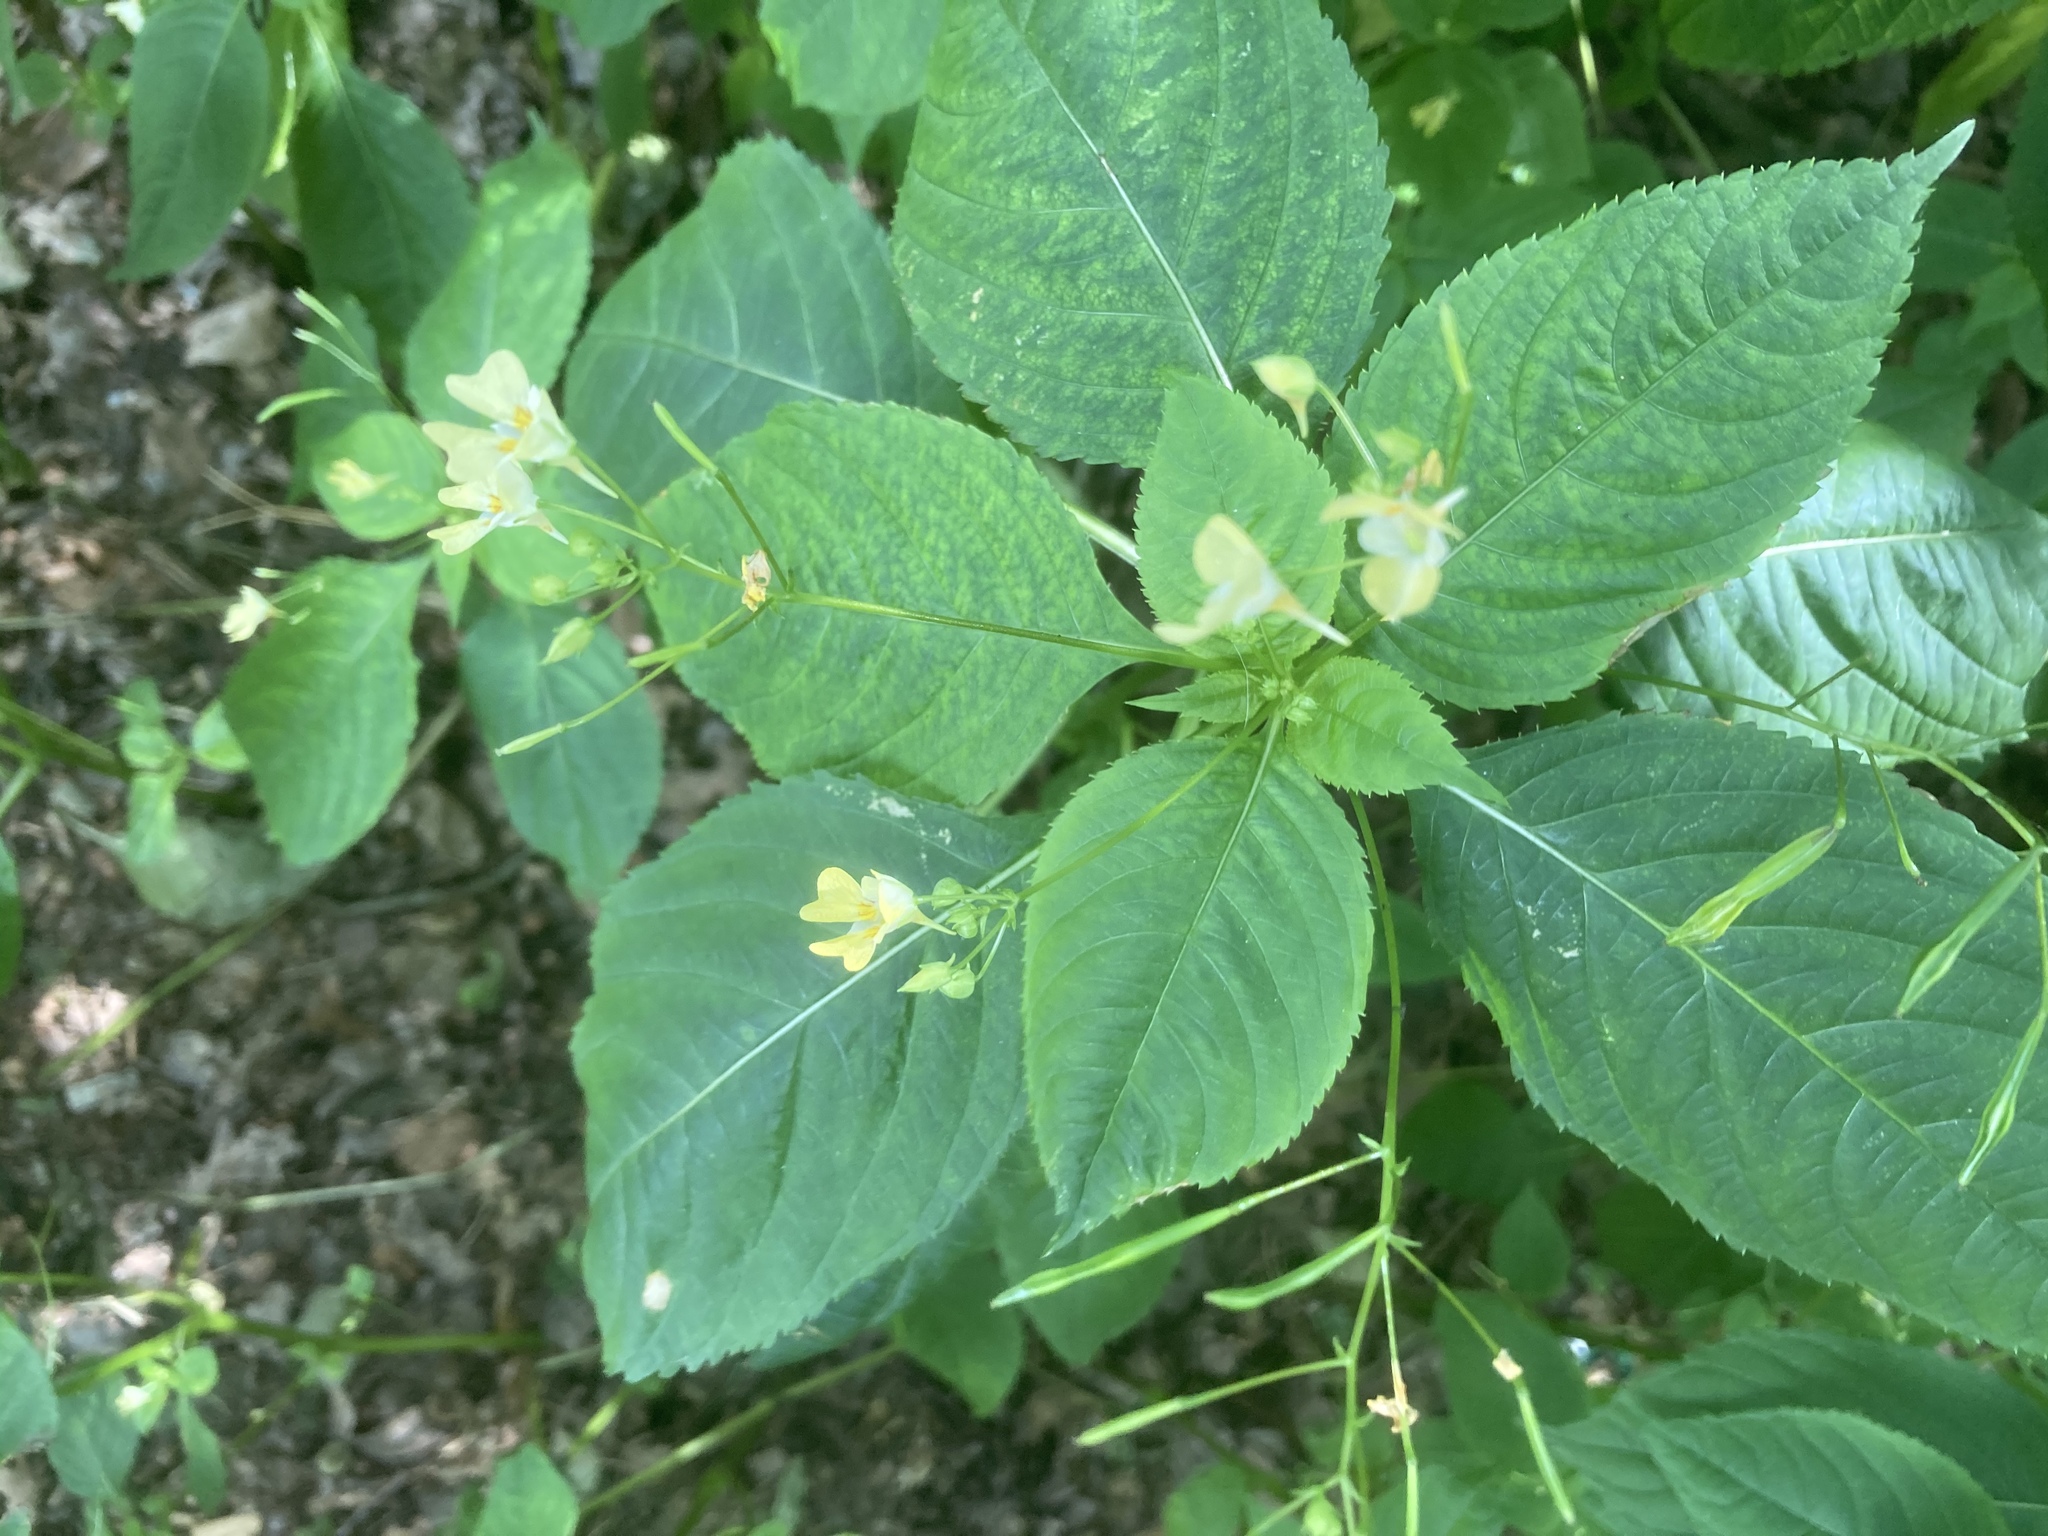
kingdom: Plantae
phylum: Tracheophyta
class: Magnoliopsida
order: Ericales
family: Balsaminaceae
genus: Impatiens
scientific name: Impatiens parviflora
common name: Small balsam
